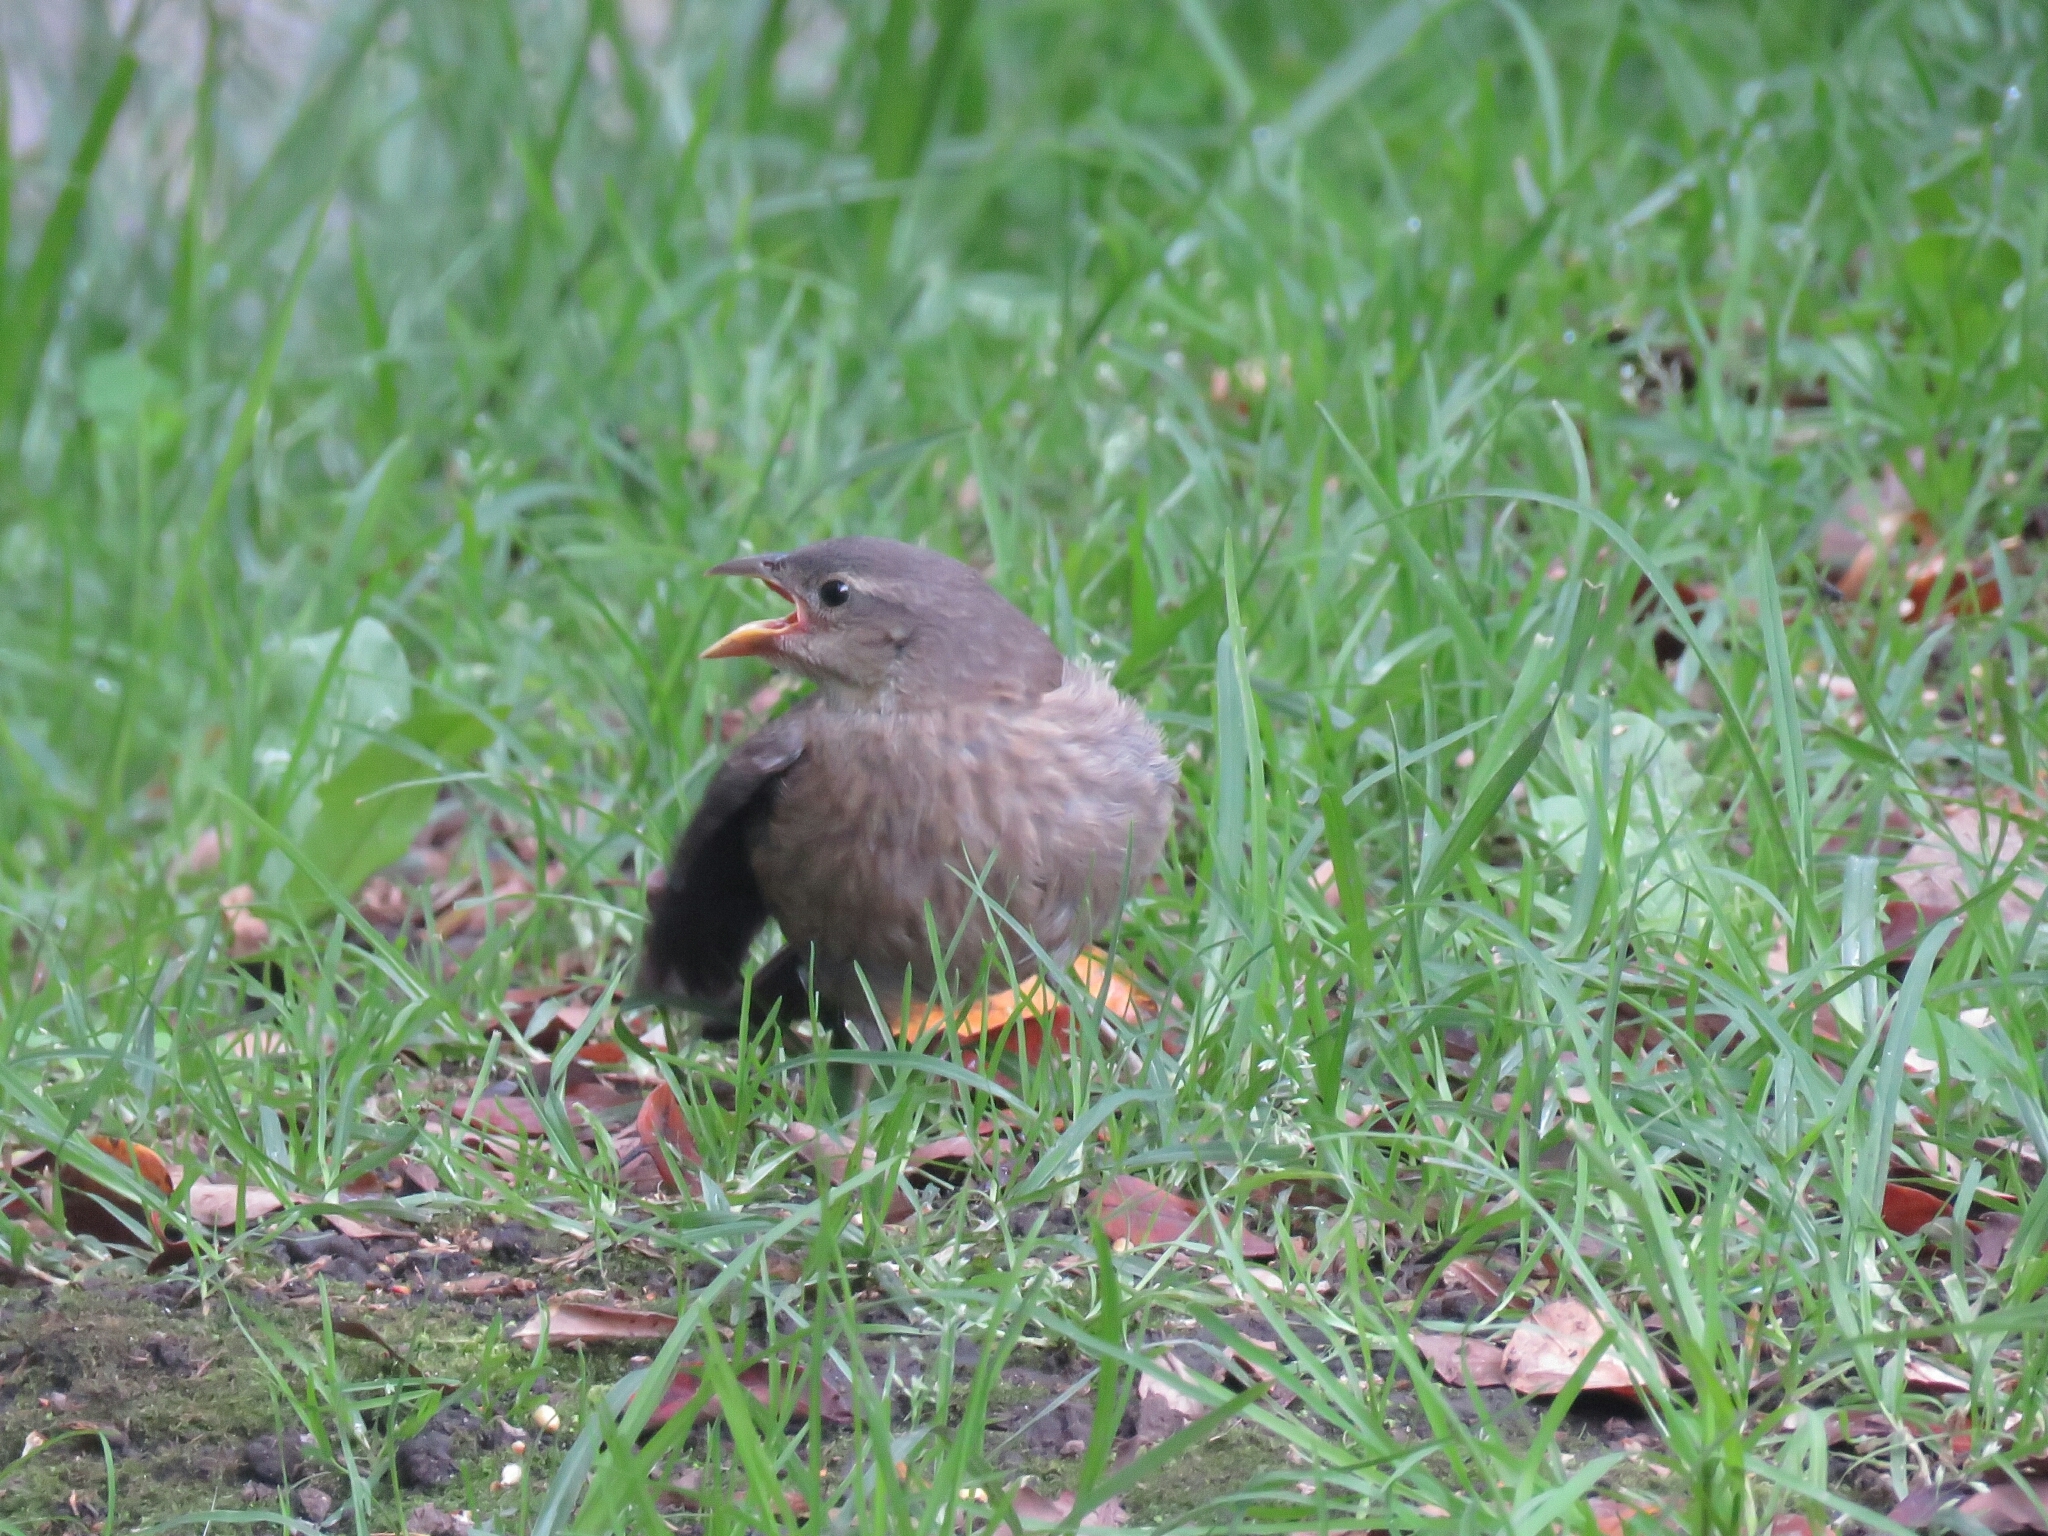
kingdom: Animalia
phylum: Chordata
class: Aves
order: Passeriformes
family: Icteridae
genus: Molothrus
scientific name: Molothrus bonariensis
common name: Shiny cowbird
